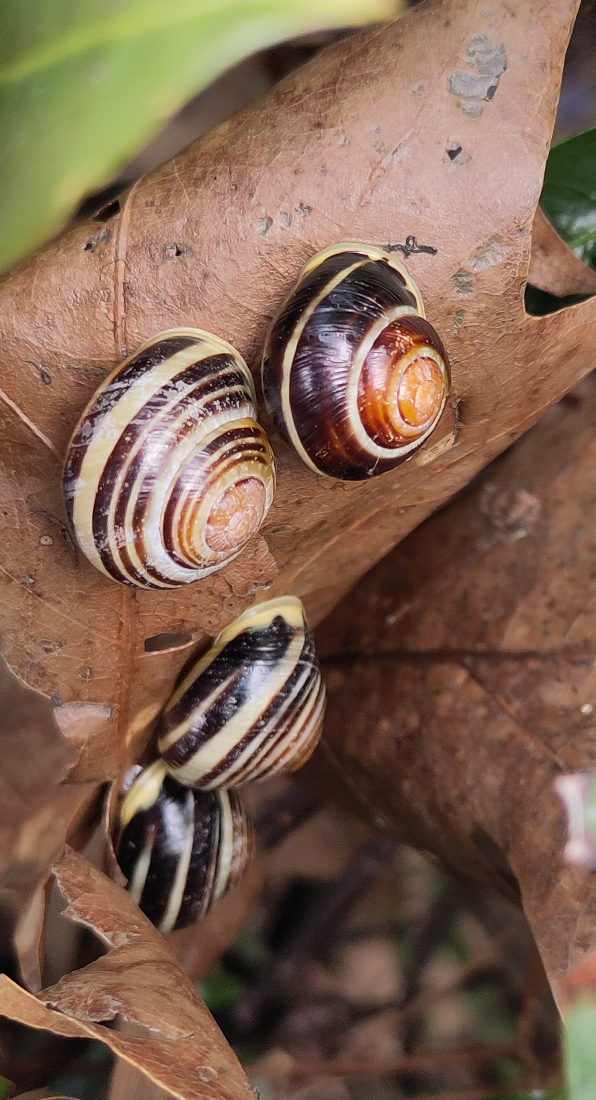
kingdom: Animalia
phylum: Mollusca
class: Gastropoda
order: Stylommatophora
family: Helicidae
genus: Cepaea
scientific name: Cepaea hortensis
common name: White-lip gardensnail
